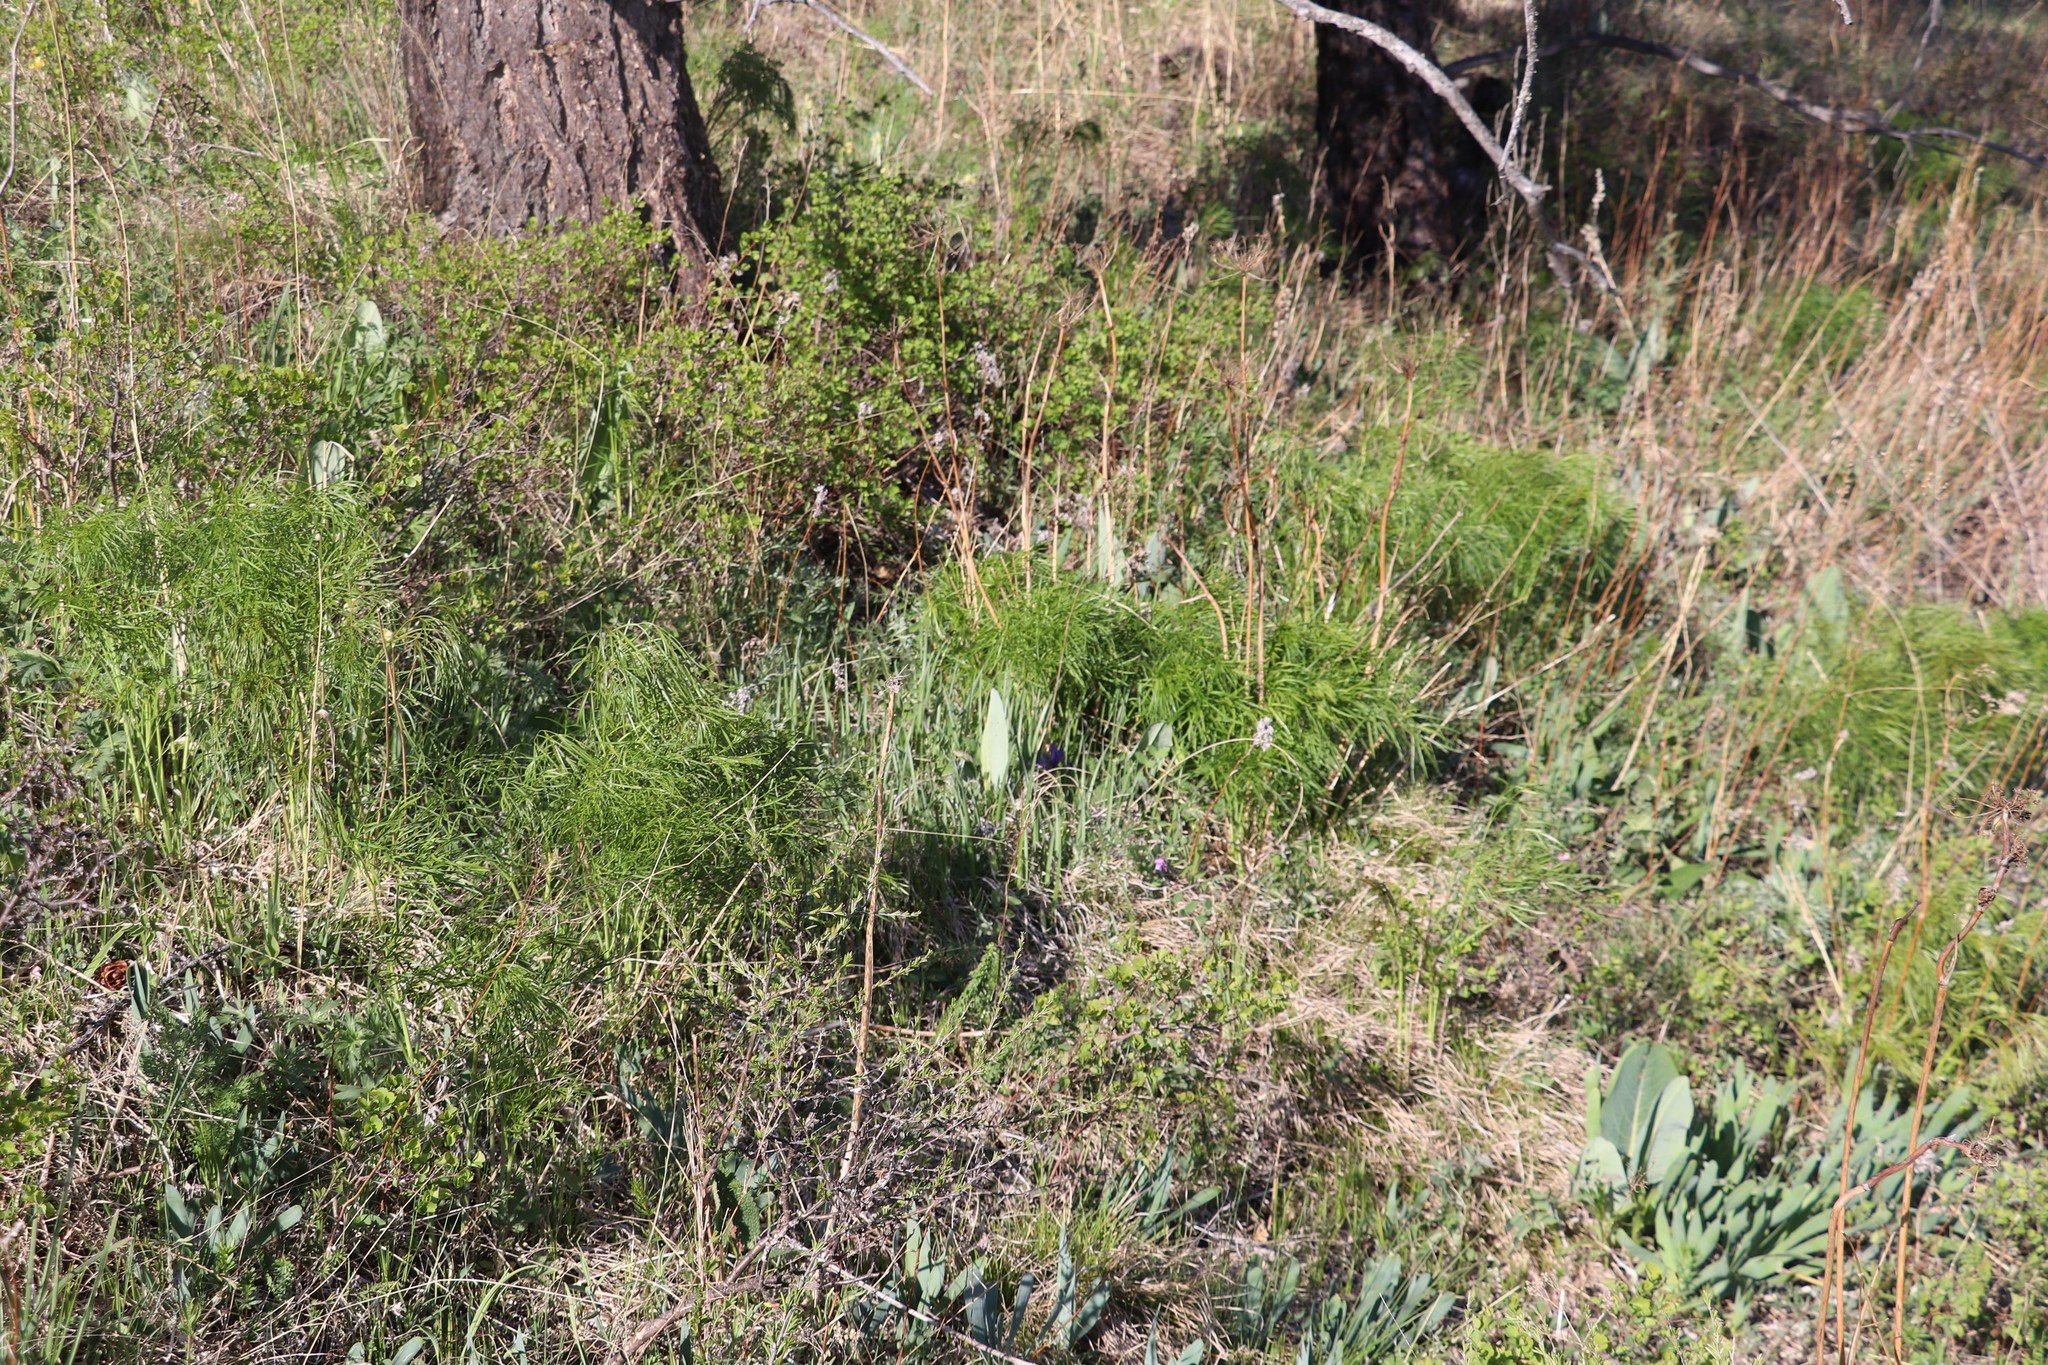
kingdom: Plantae
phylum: Tracheophyta
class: Magnoliopsida
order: Apiales
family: Apiaceae
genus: Peucedanum
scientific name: Peucedanum morisonii
